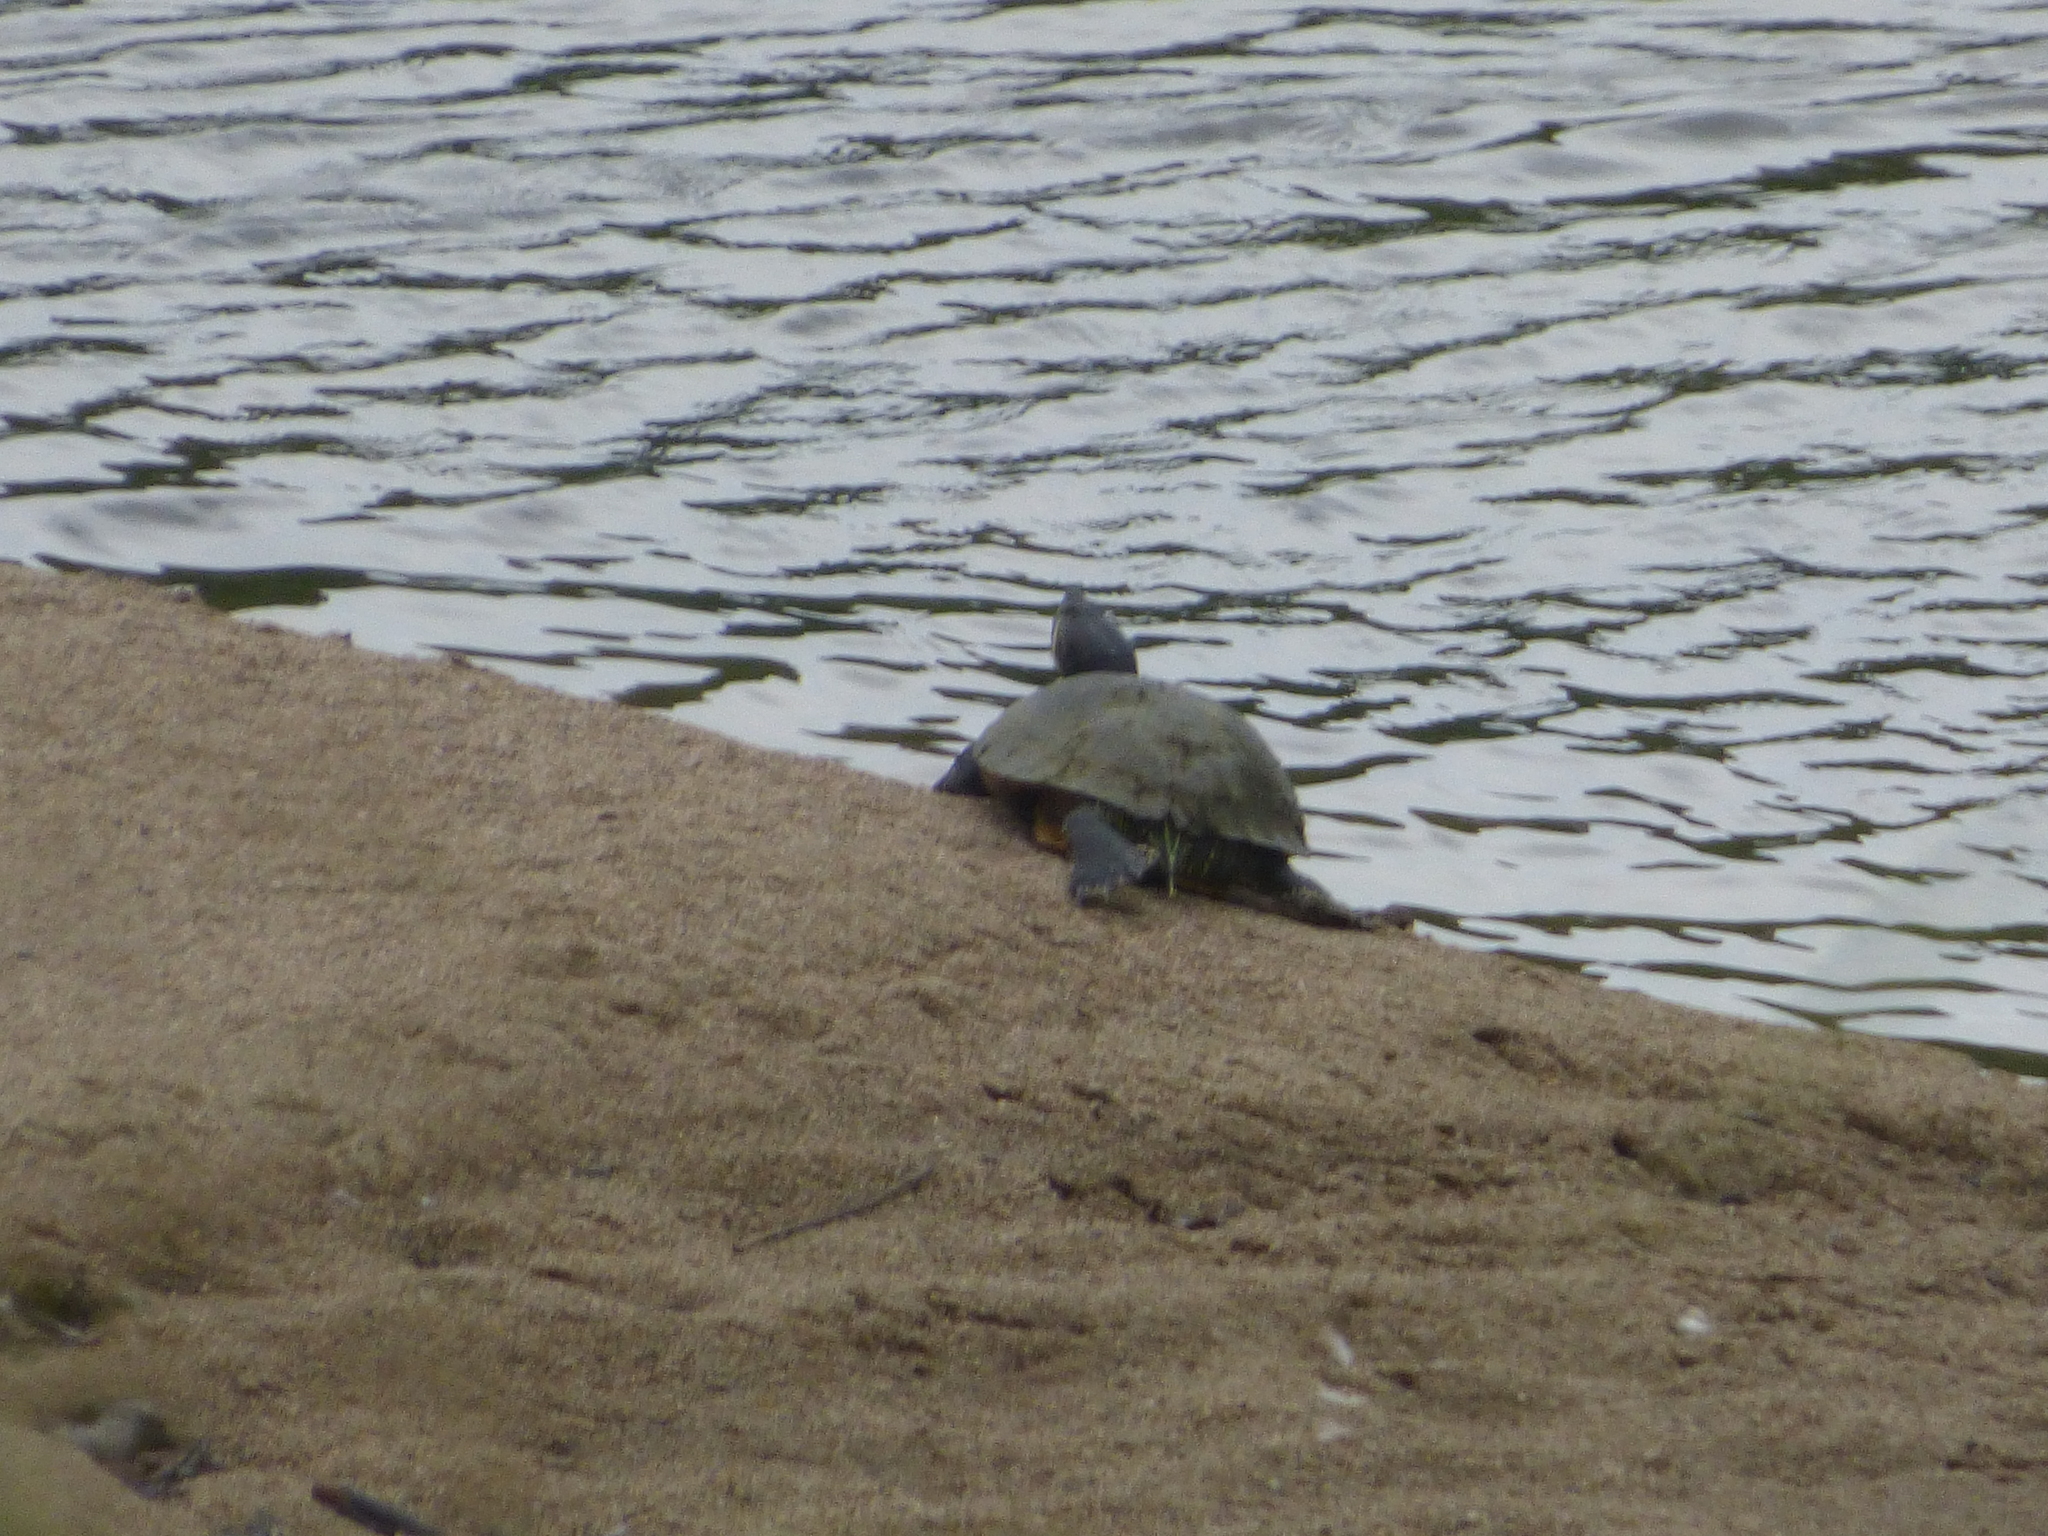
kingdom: Animalia
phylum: Chordata
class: Testudines
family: Emydidae
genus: Trachemys
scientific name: Trachemys scripta
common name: Slider
